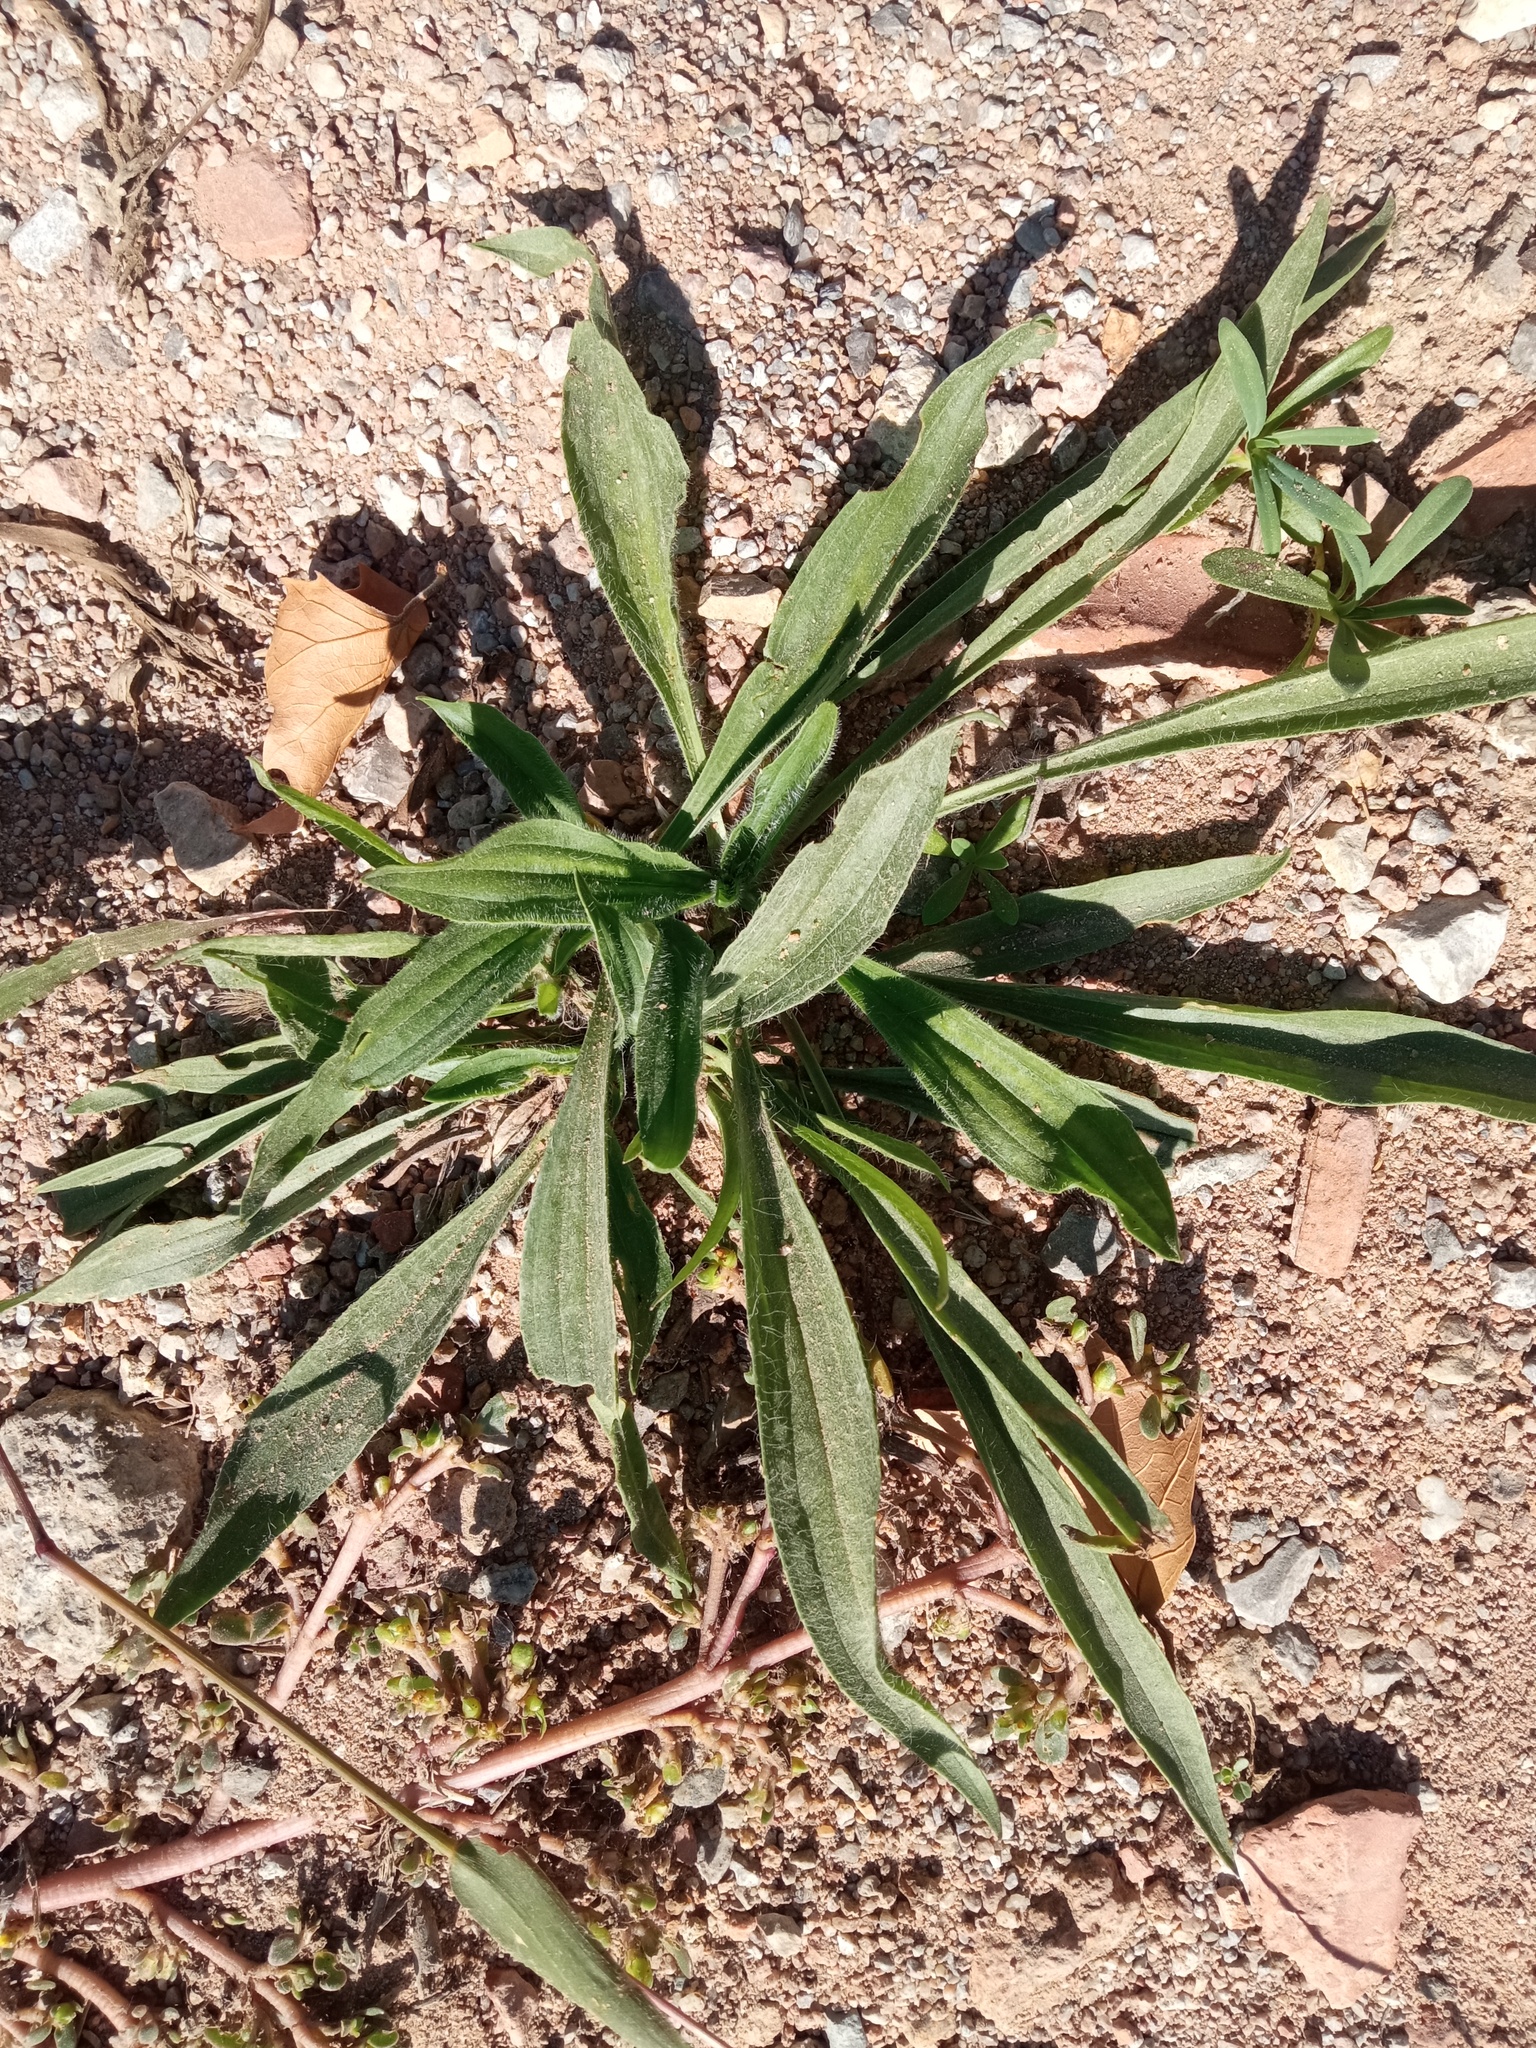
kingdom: Plantae
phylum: Tracheophyta
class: Magnoliopsida
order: Lamiales
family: Plantaginaceae
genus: Plantago
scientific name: Plantago lanceolata
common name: Ribwort plantain
